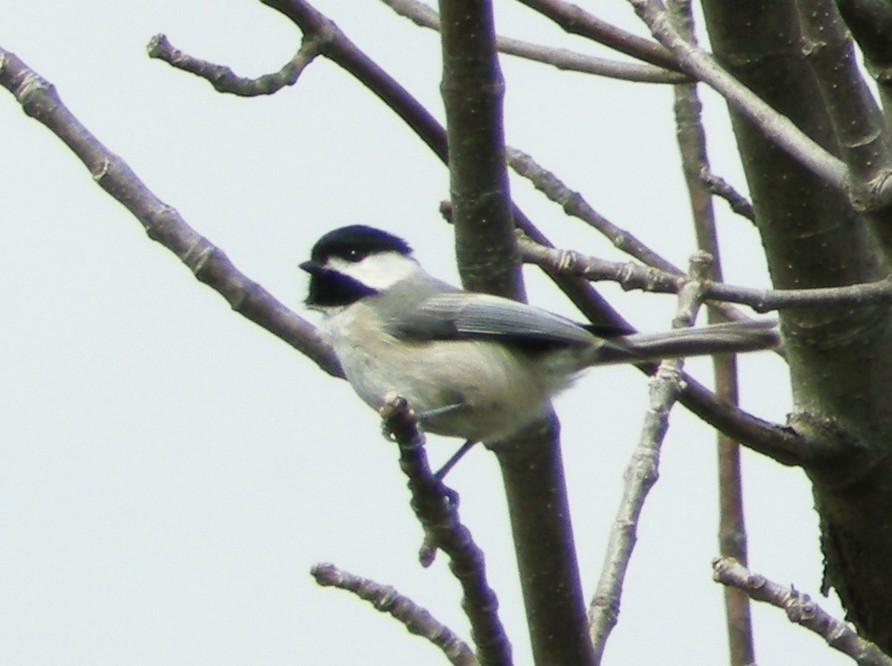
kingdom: Animalia
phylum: Chordata
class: Aves
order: Passeriformes
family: Paridae
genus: Poecile
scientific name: Poecile carolinensis
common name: Carolina chickadee
